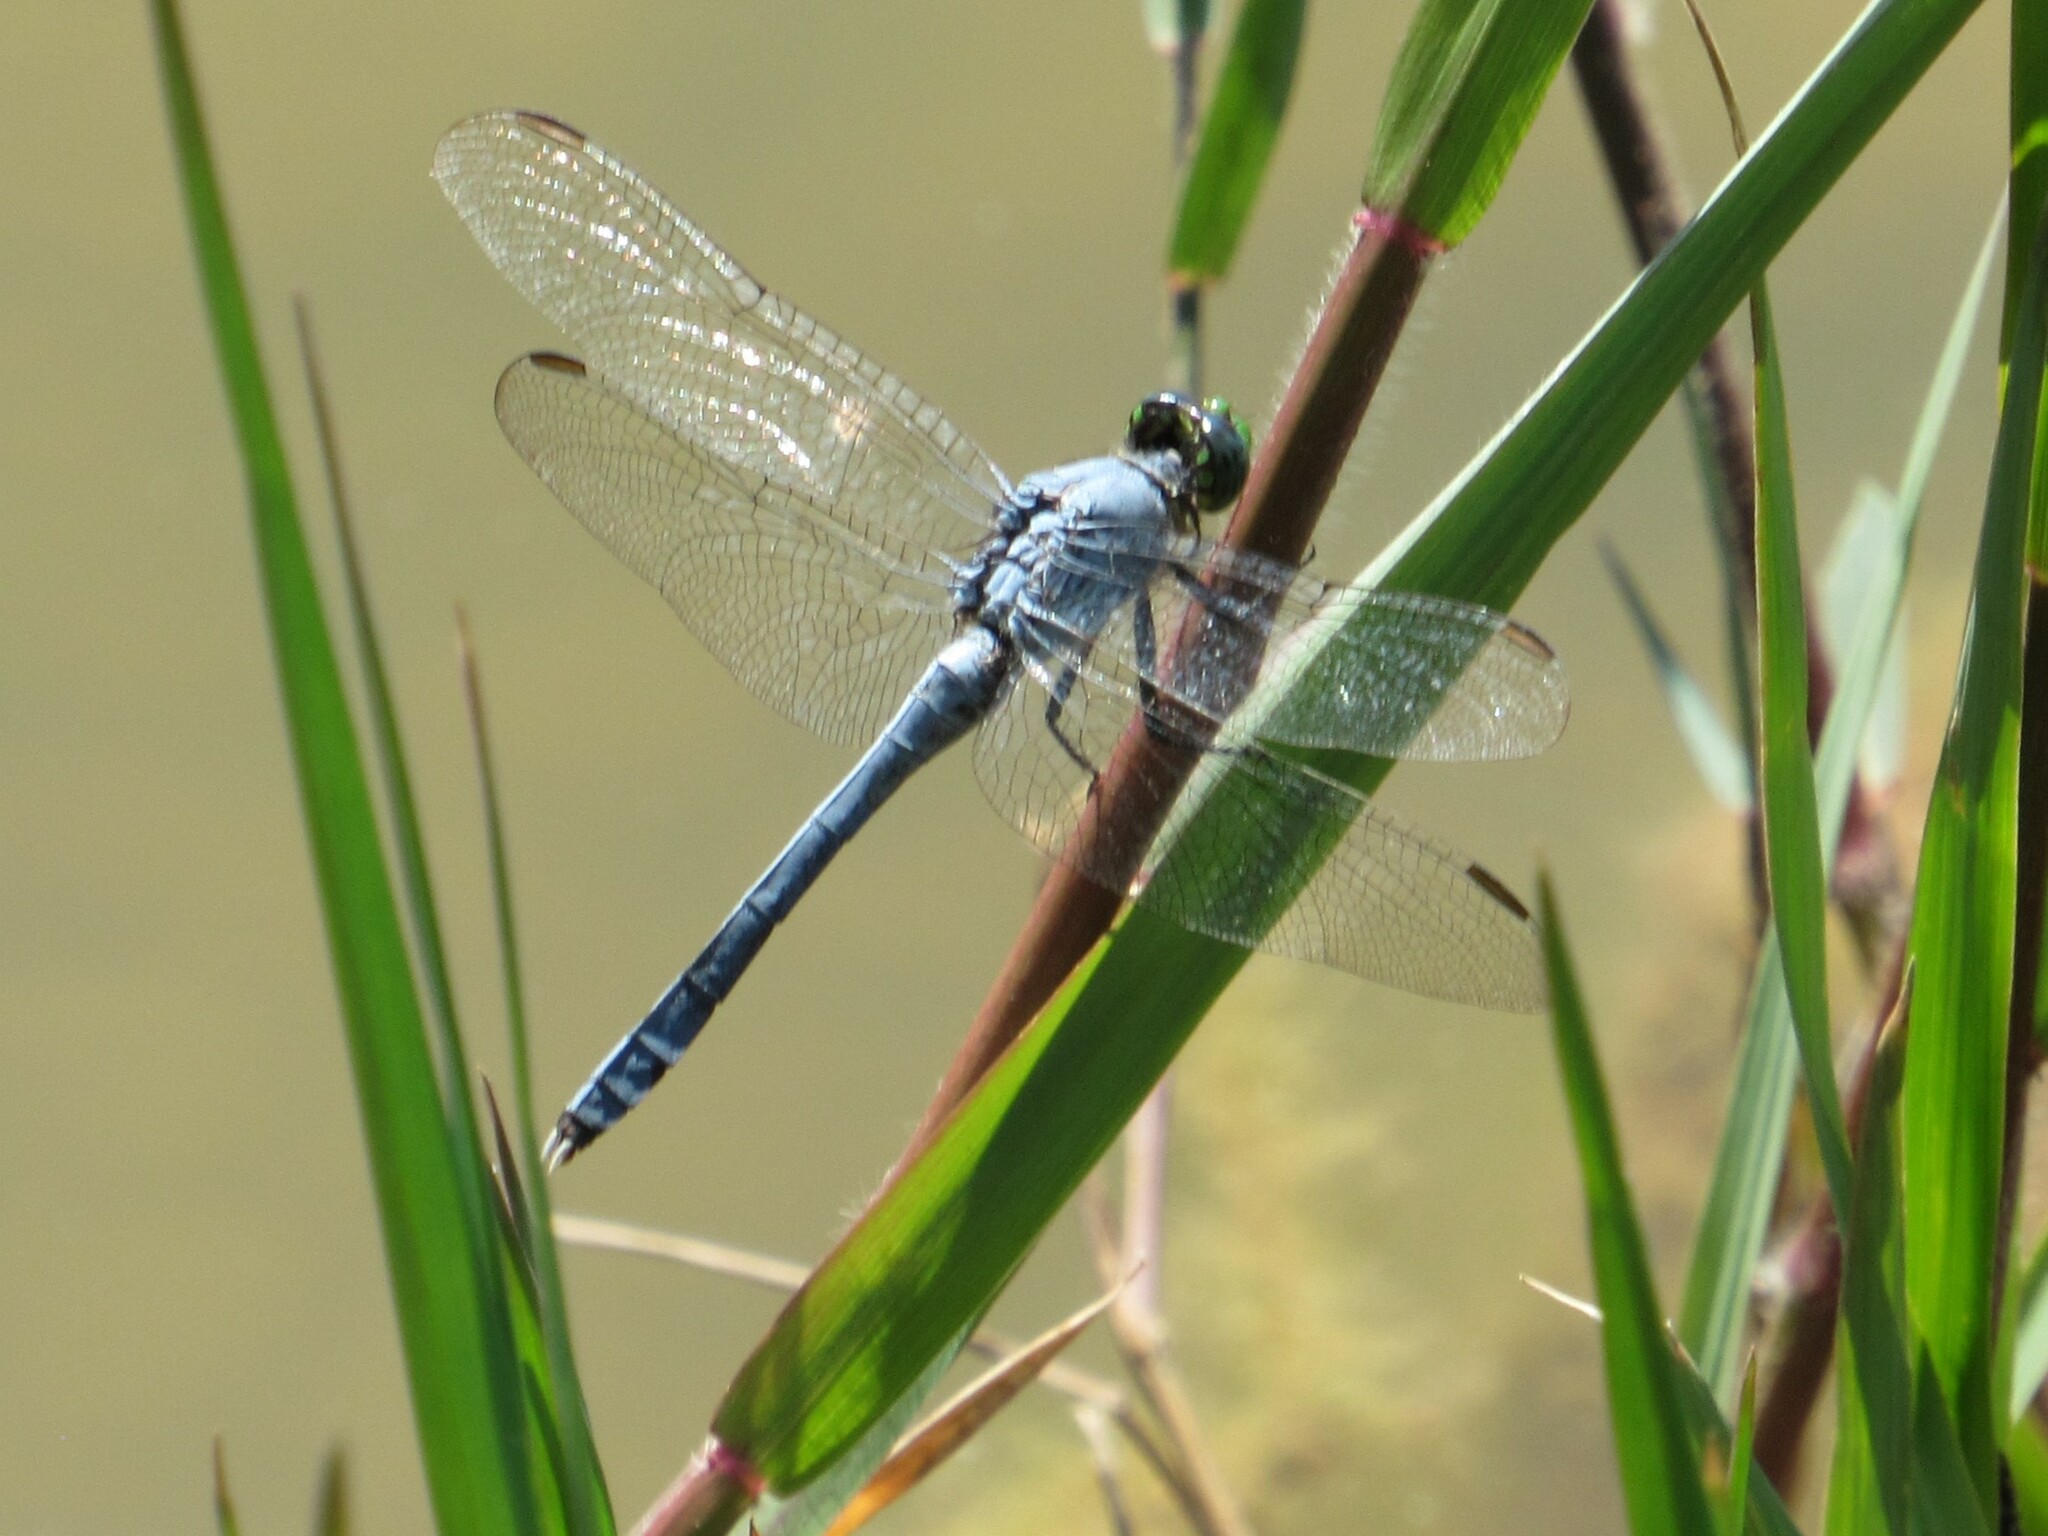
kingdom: Animalia
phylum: Arthropoda
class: Insecta
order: Odonata
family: Libellulidae
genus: Erythemis
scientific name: Erythemis simplicicollis
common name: Eastern pondhawk
